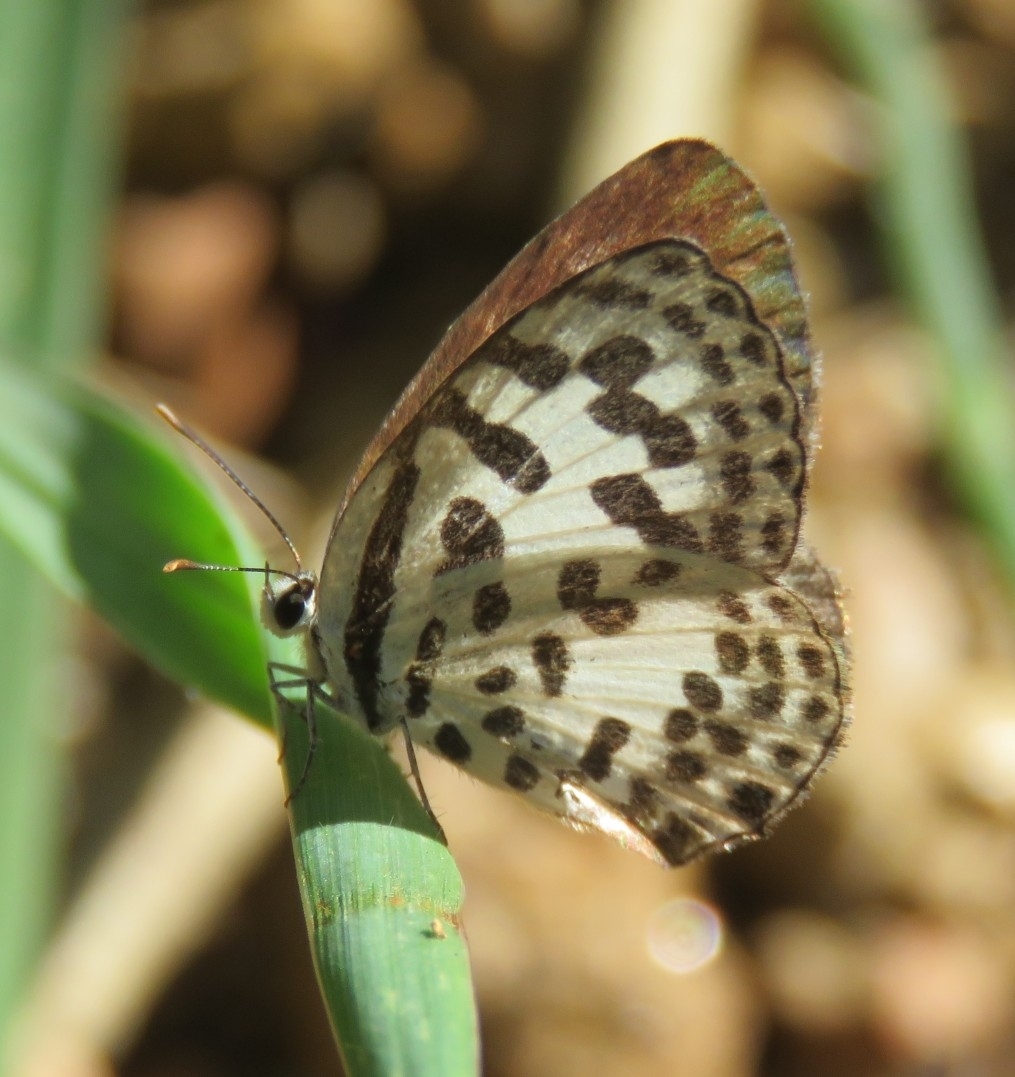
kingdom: Animalia
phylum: Arthropoda
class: Insecta
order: Lepidoptera
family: Lycaenidae
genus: Castalius
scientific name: Castalius rosimon
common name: Common pierrot
